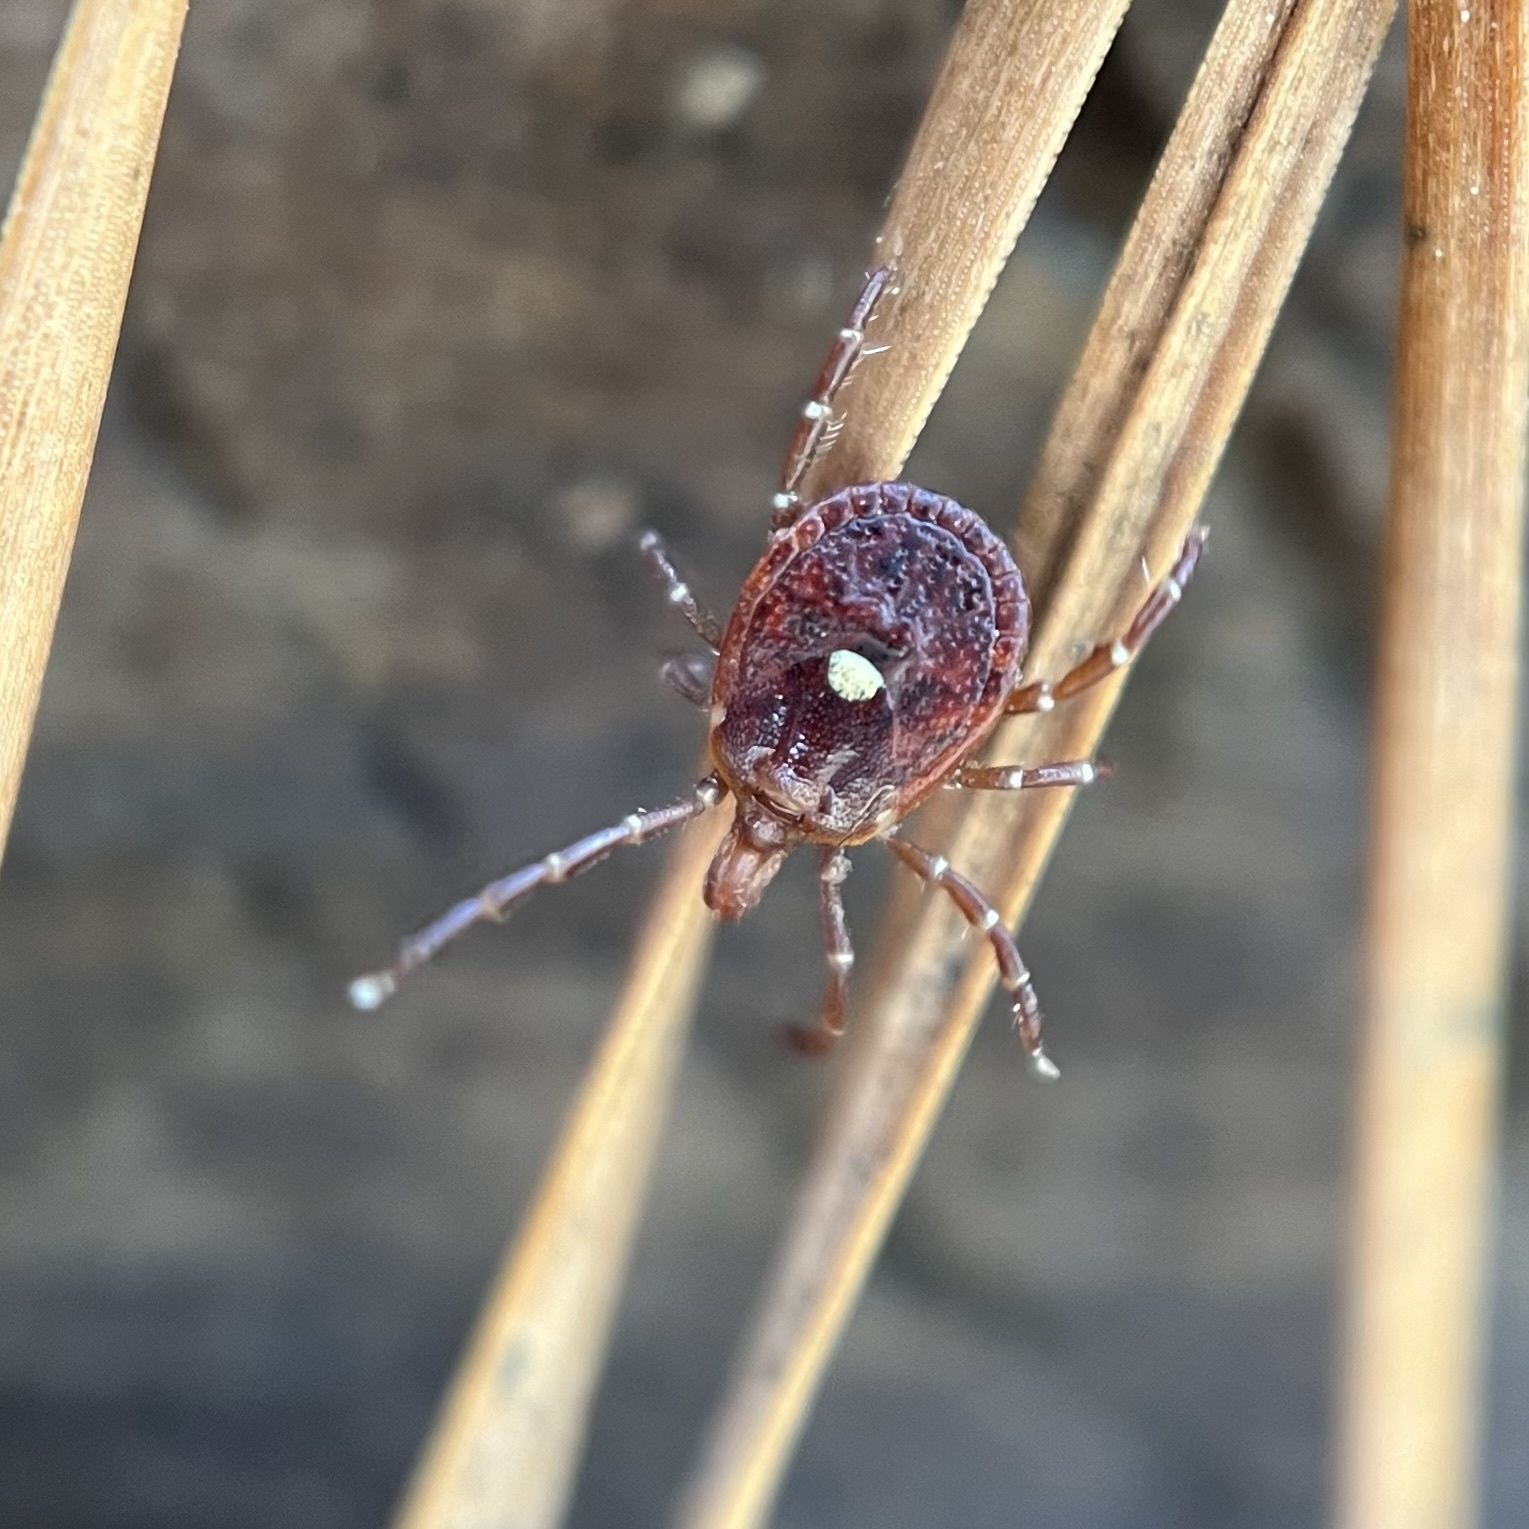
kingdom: Animalia
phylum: Arthropoda
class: Arachnida
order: Ixodida
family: Ixodidae
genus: Amblyomma
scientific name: Amblyomma americanum
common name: Lone star tick
